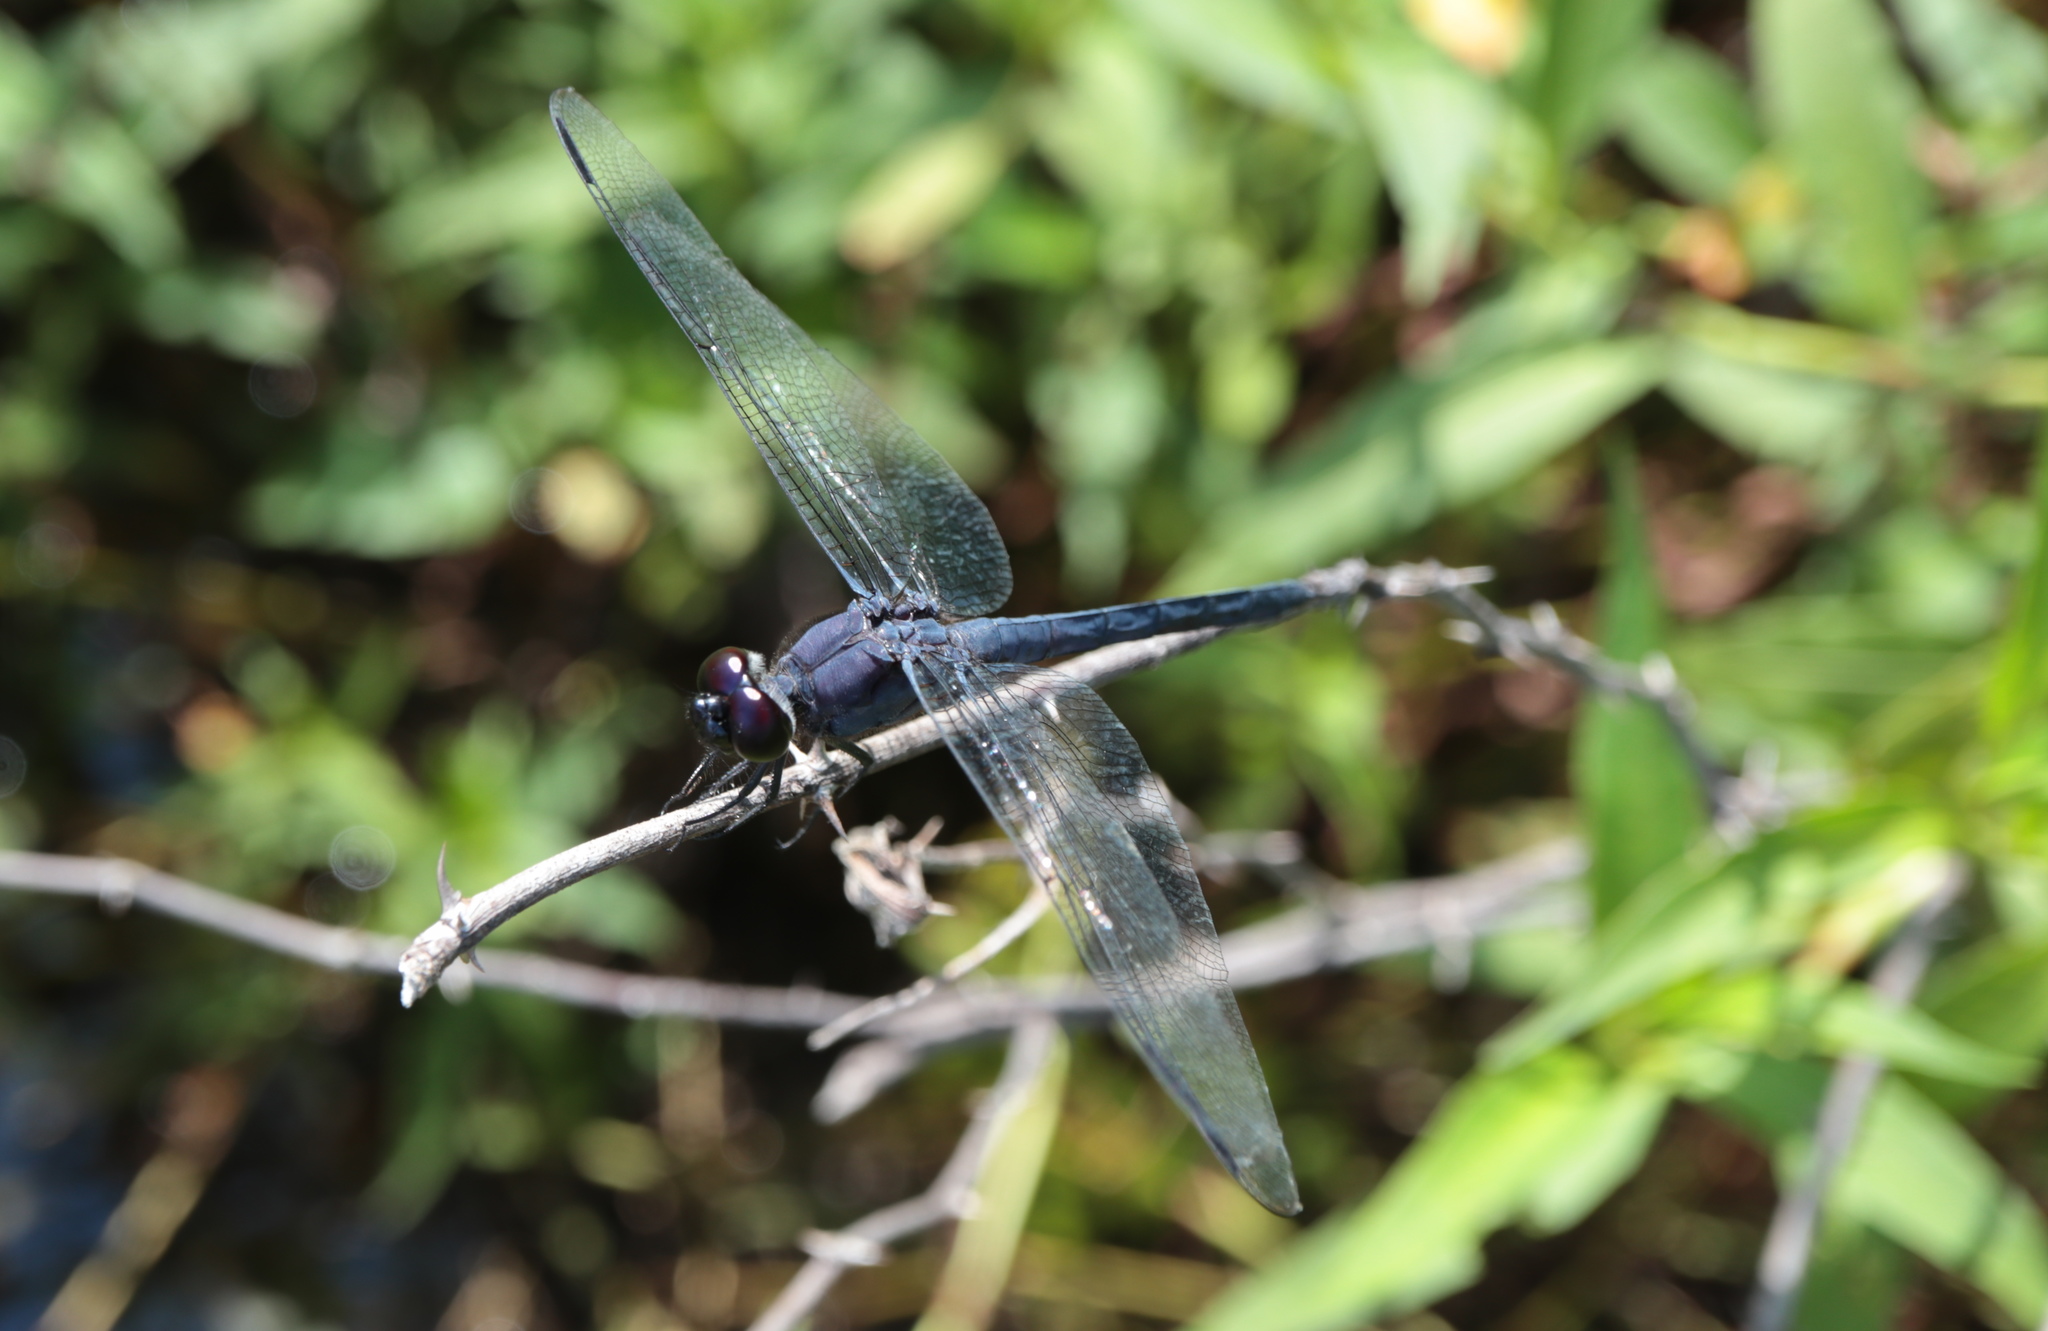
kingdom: Animalia
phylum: Arthropoda
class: Insecta
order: Odonata
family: Libellulidae
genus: Libellula
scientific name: Libellula incesta
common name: Slaty skimmer
